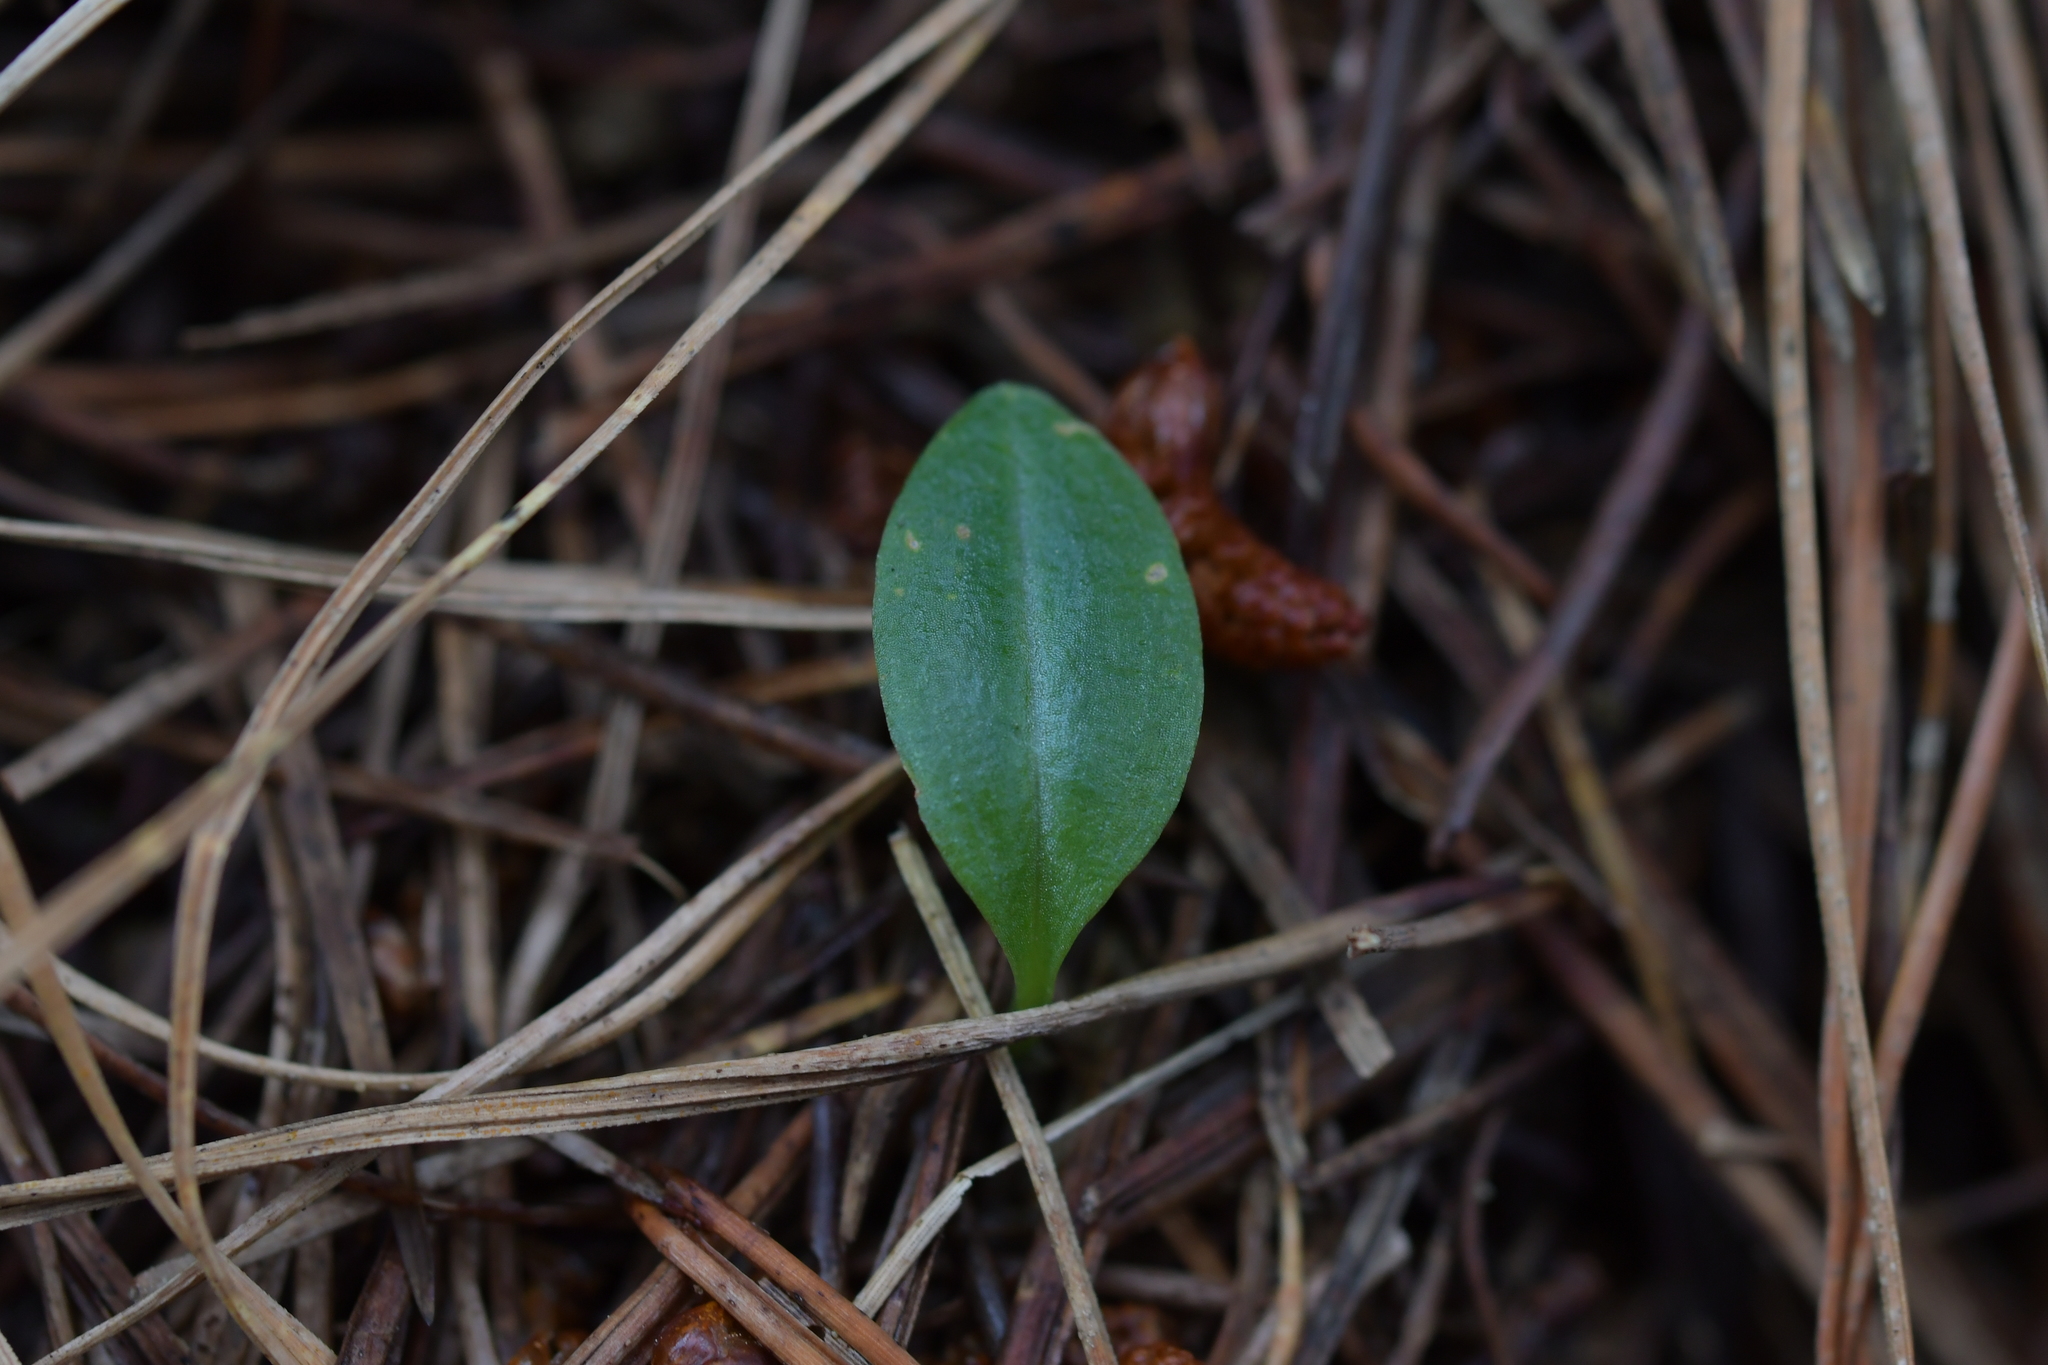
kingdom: Plantae
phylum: Tracheophyta
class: Liliopsida
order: Asparagales
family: Orchidaceae
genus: Chiloglottis
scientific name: Chiloglottis cornuta
